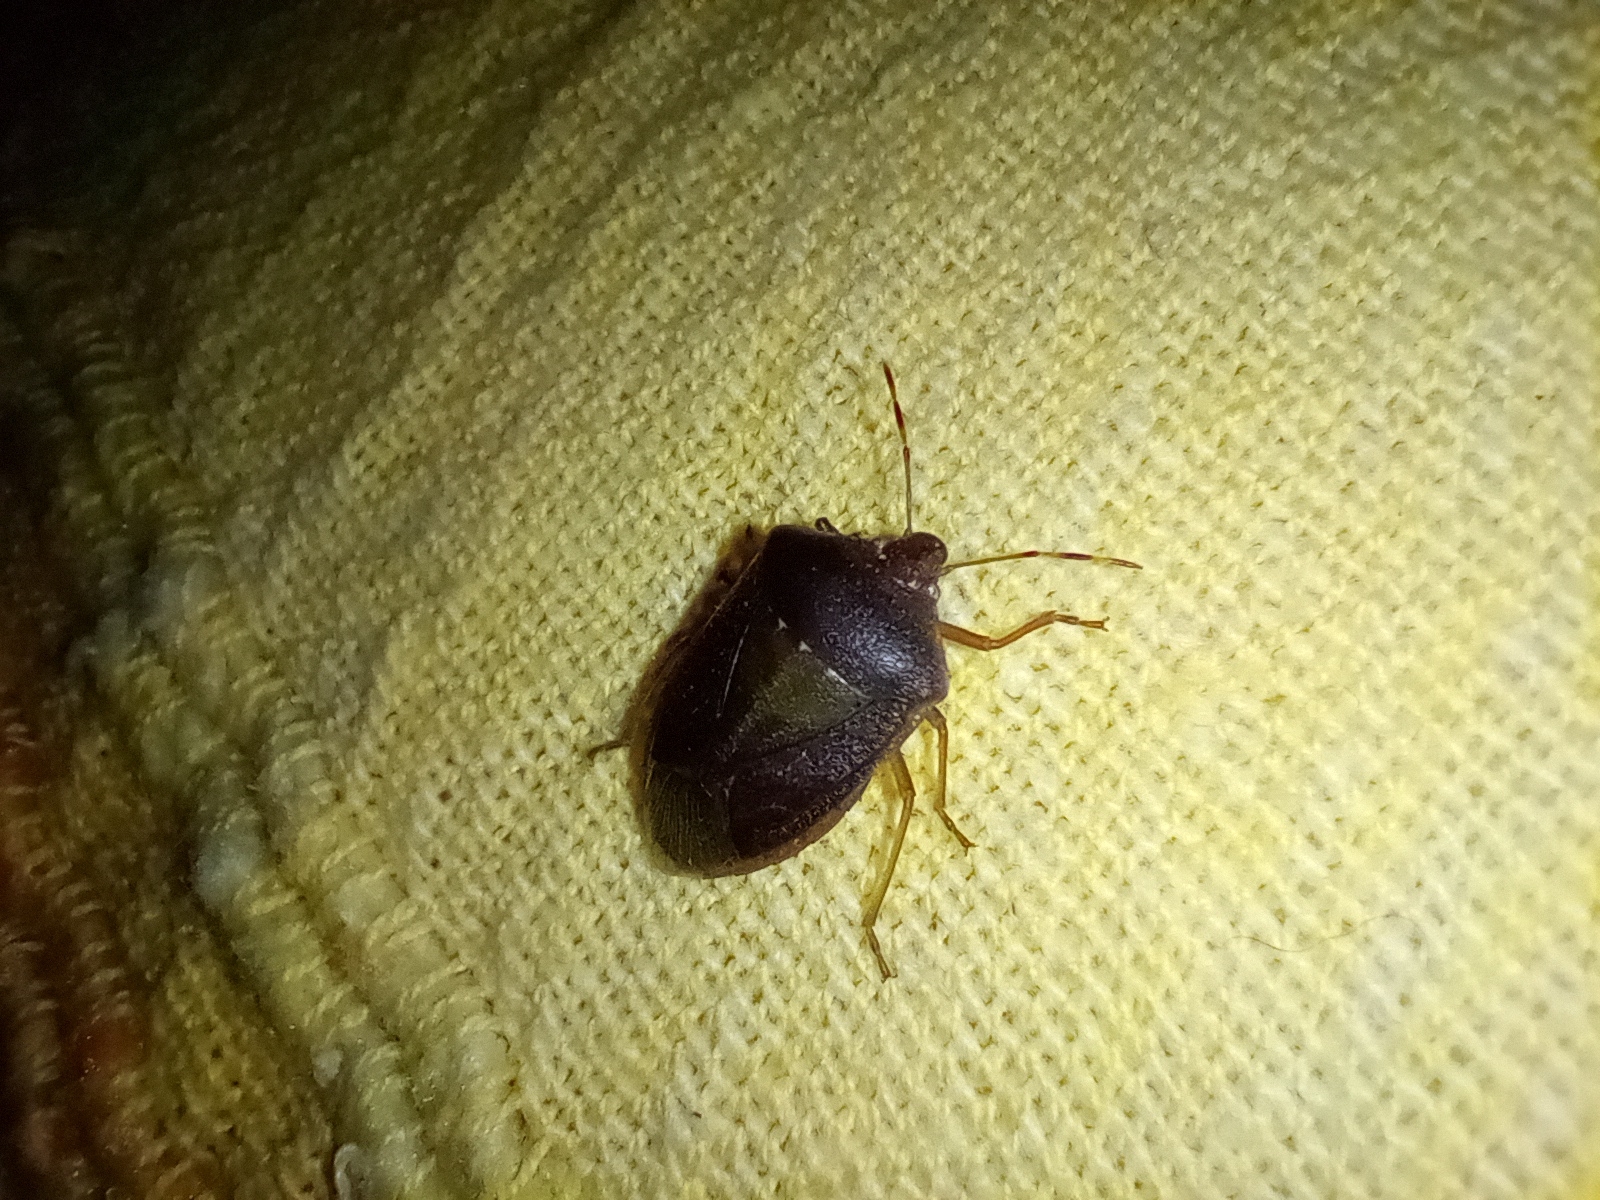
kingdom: Animalia
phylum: Arthropoda
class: Insecta
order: Hemiptera
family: Pentatomidae
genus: Nezara
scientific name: Nezara viridula
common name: Southern green stink bug
